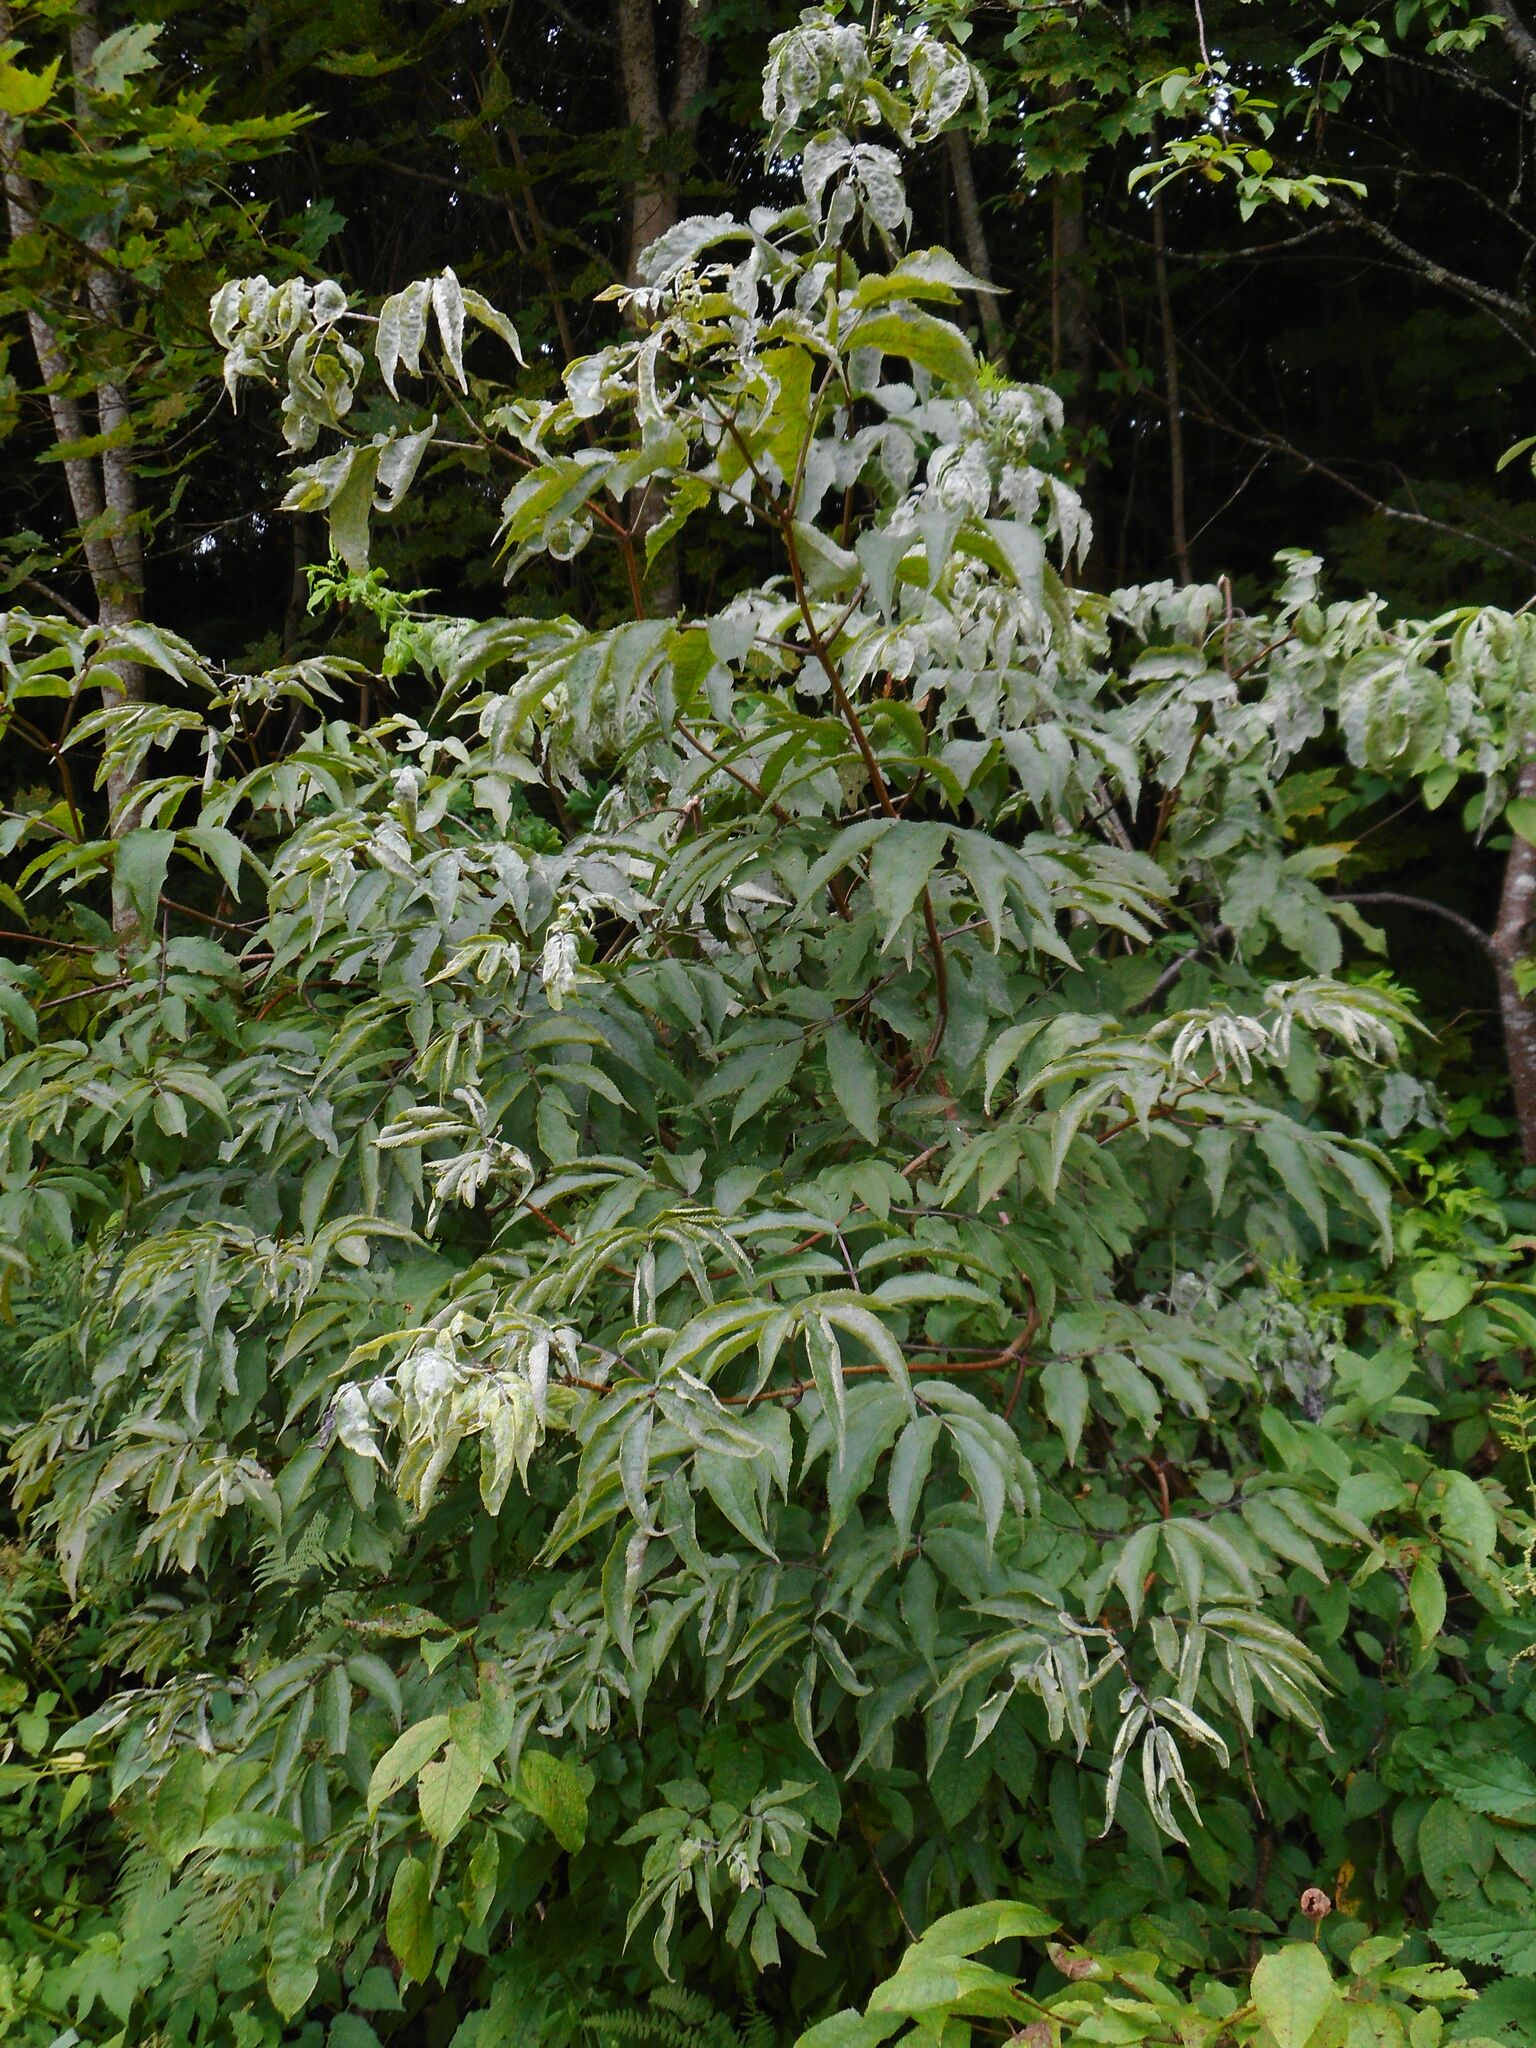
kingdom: Plantae
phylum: Tracheophyta
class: Magnoliopsida
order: Dipsacales
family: Viburnaceae
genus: Sambucus
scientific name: Sambucus racemosa
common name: Red-berried elder
